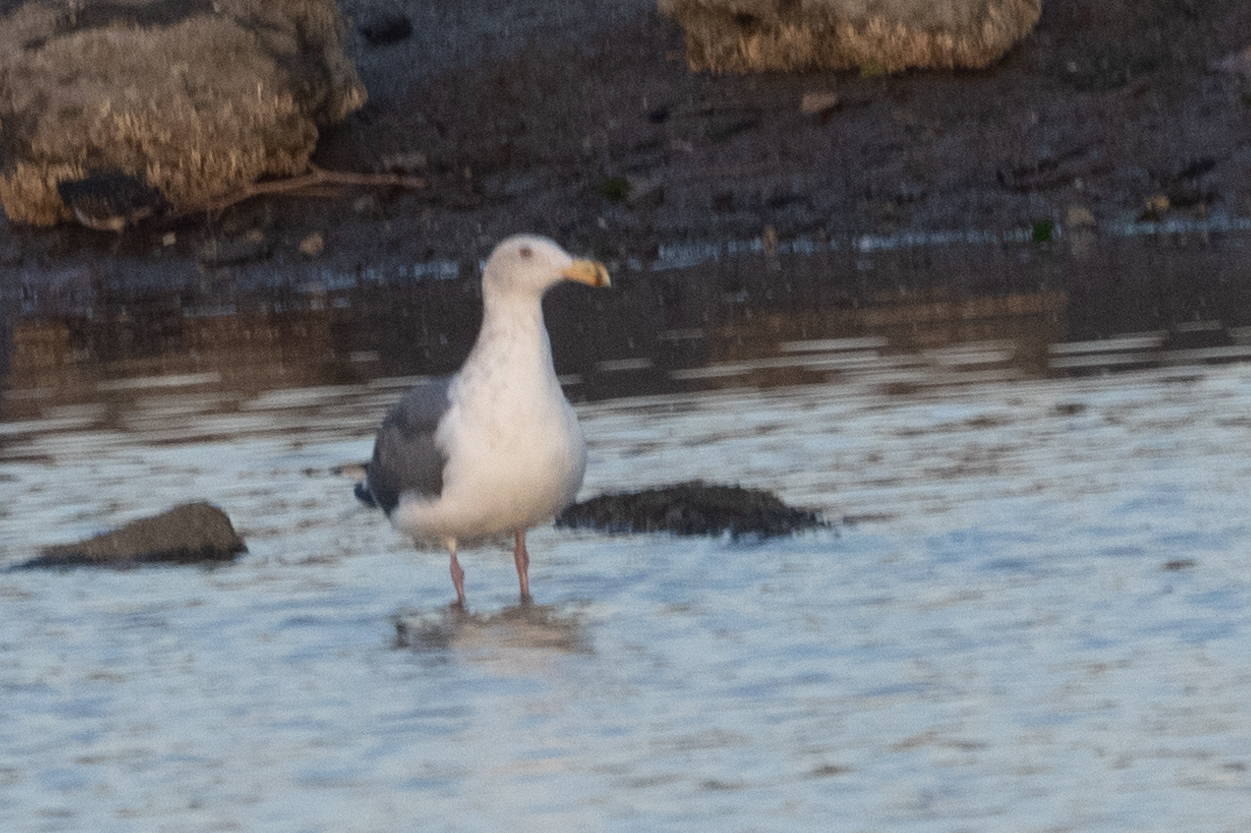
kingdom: Animalia
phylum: Chordata
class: Aves
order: Charadriiformes
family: Laridae
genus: Larus
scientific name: Larus occidentalis
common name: Western gull
